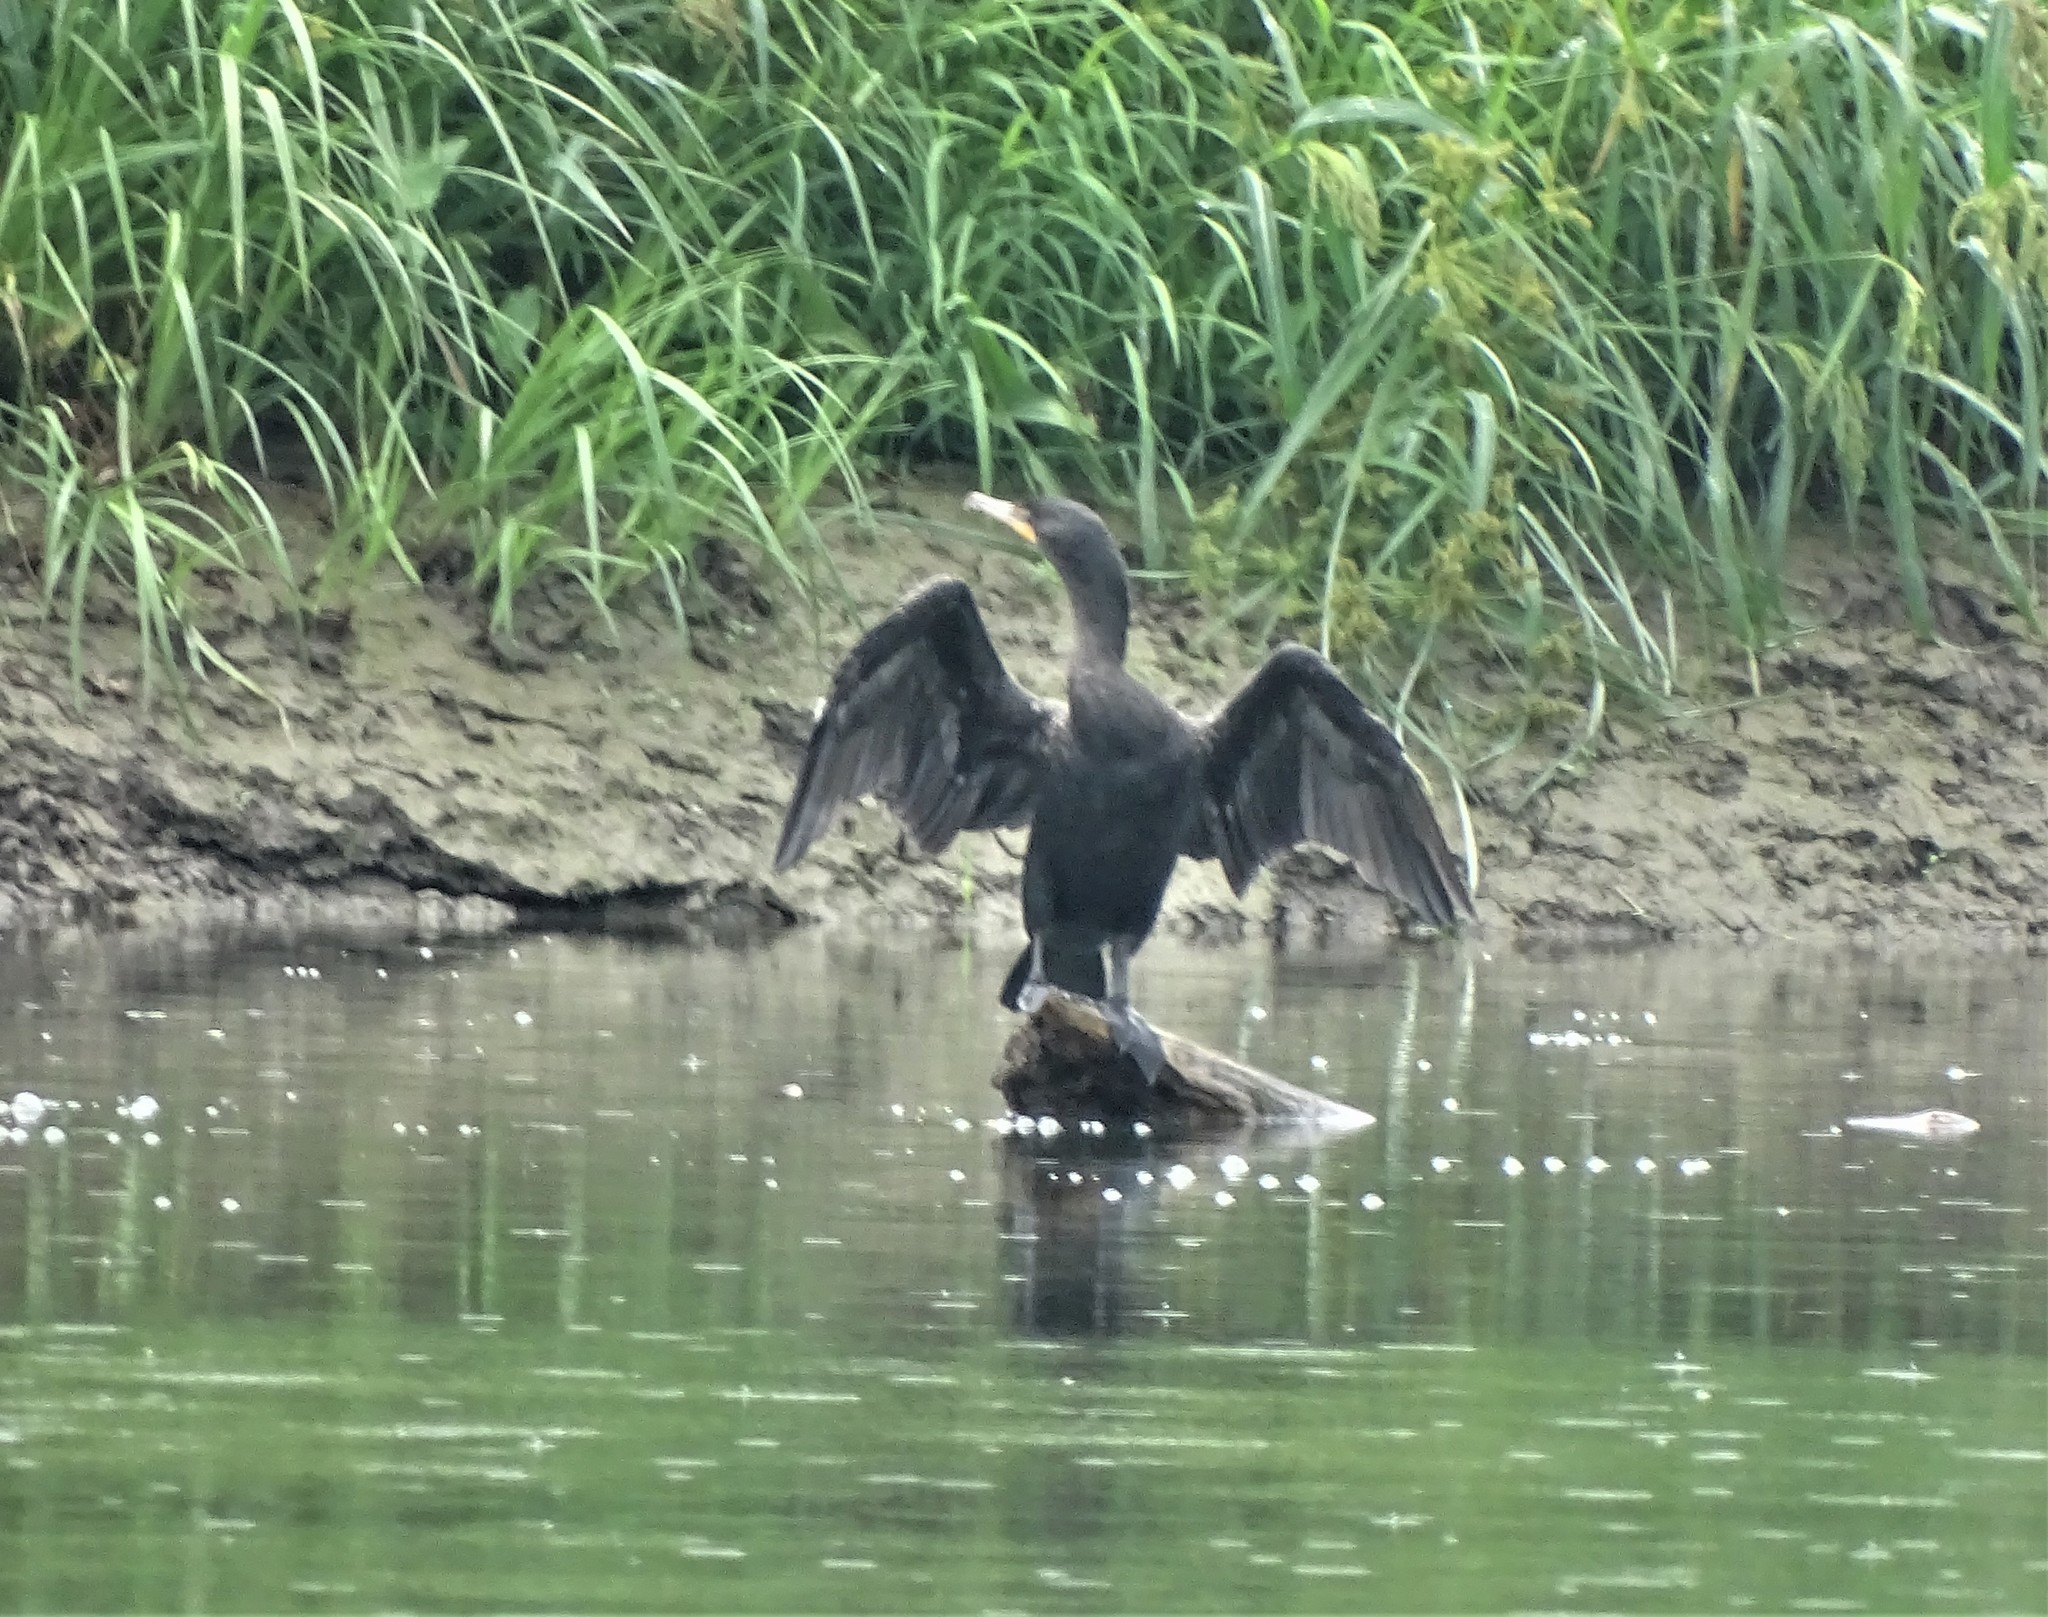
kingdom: Animalia
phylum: Chordata
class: Aves
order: Suliformes
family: Phalacrocoracidae
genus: Phalacrocorax
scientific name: Phalacrocorax auritus
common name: Double-crested cormorant
